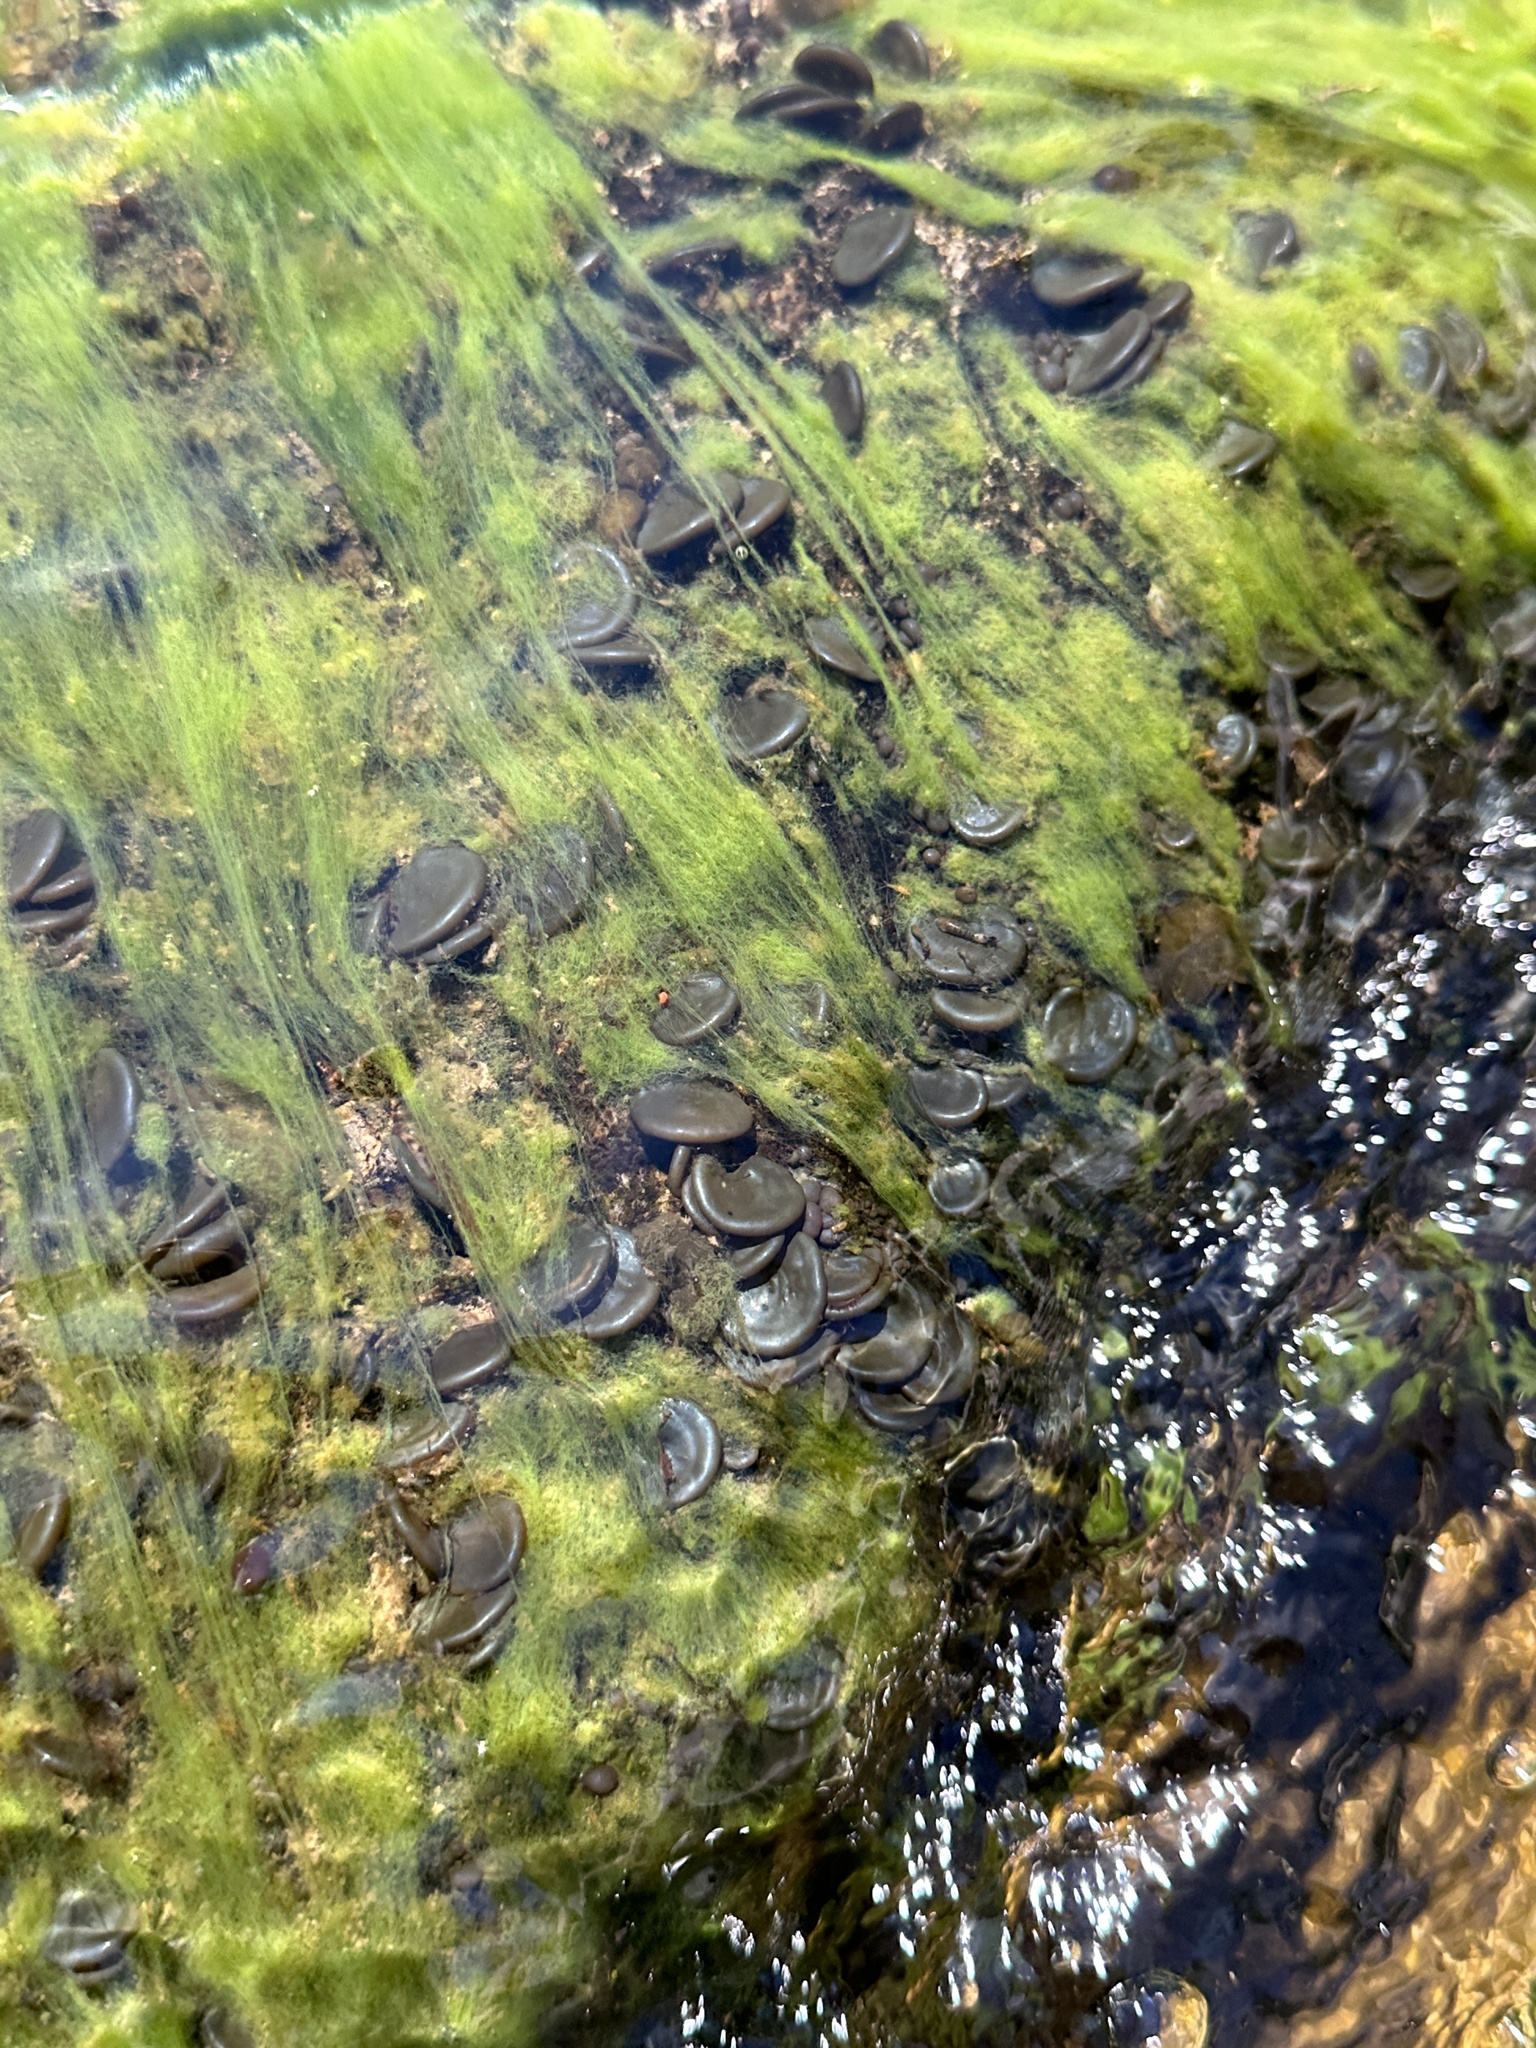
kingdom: Bacteria
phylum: Cyanobacteria
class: Cyanobacteriia
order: Cyanobacteriales
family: Nostocaceae
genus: Nostoc
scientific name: Nostoc parmelioides
